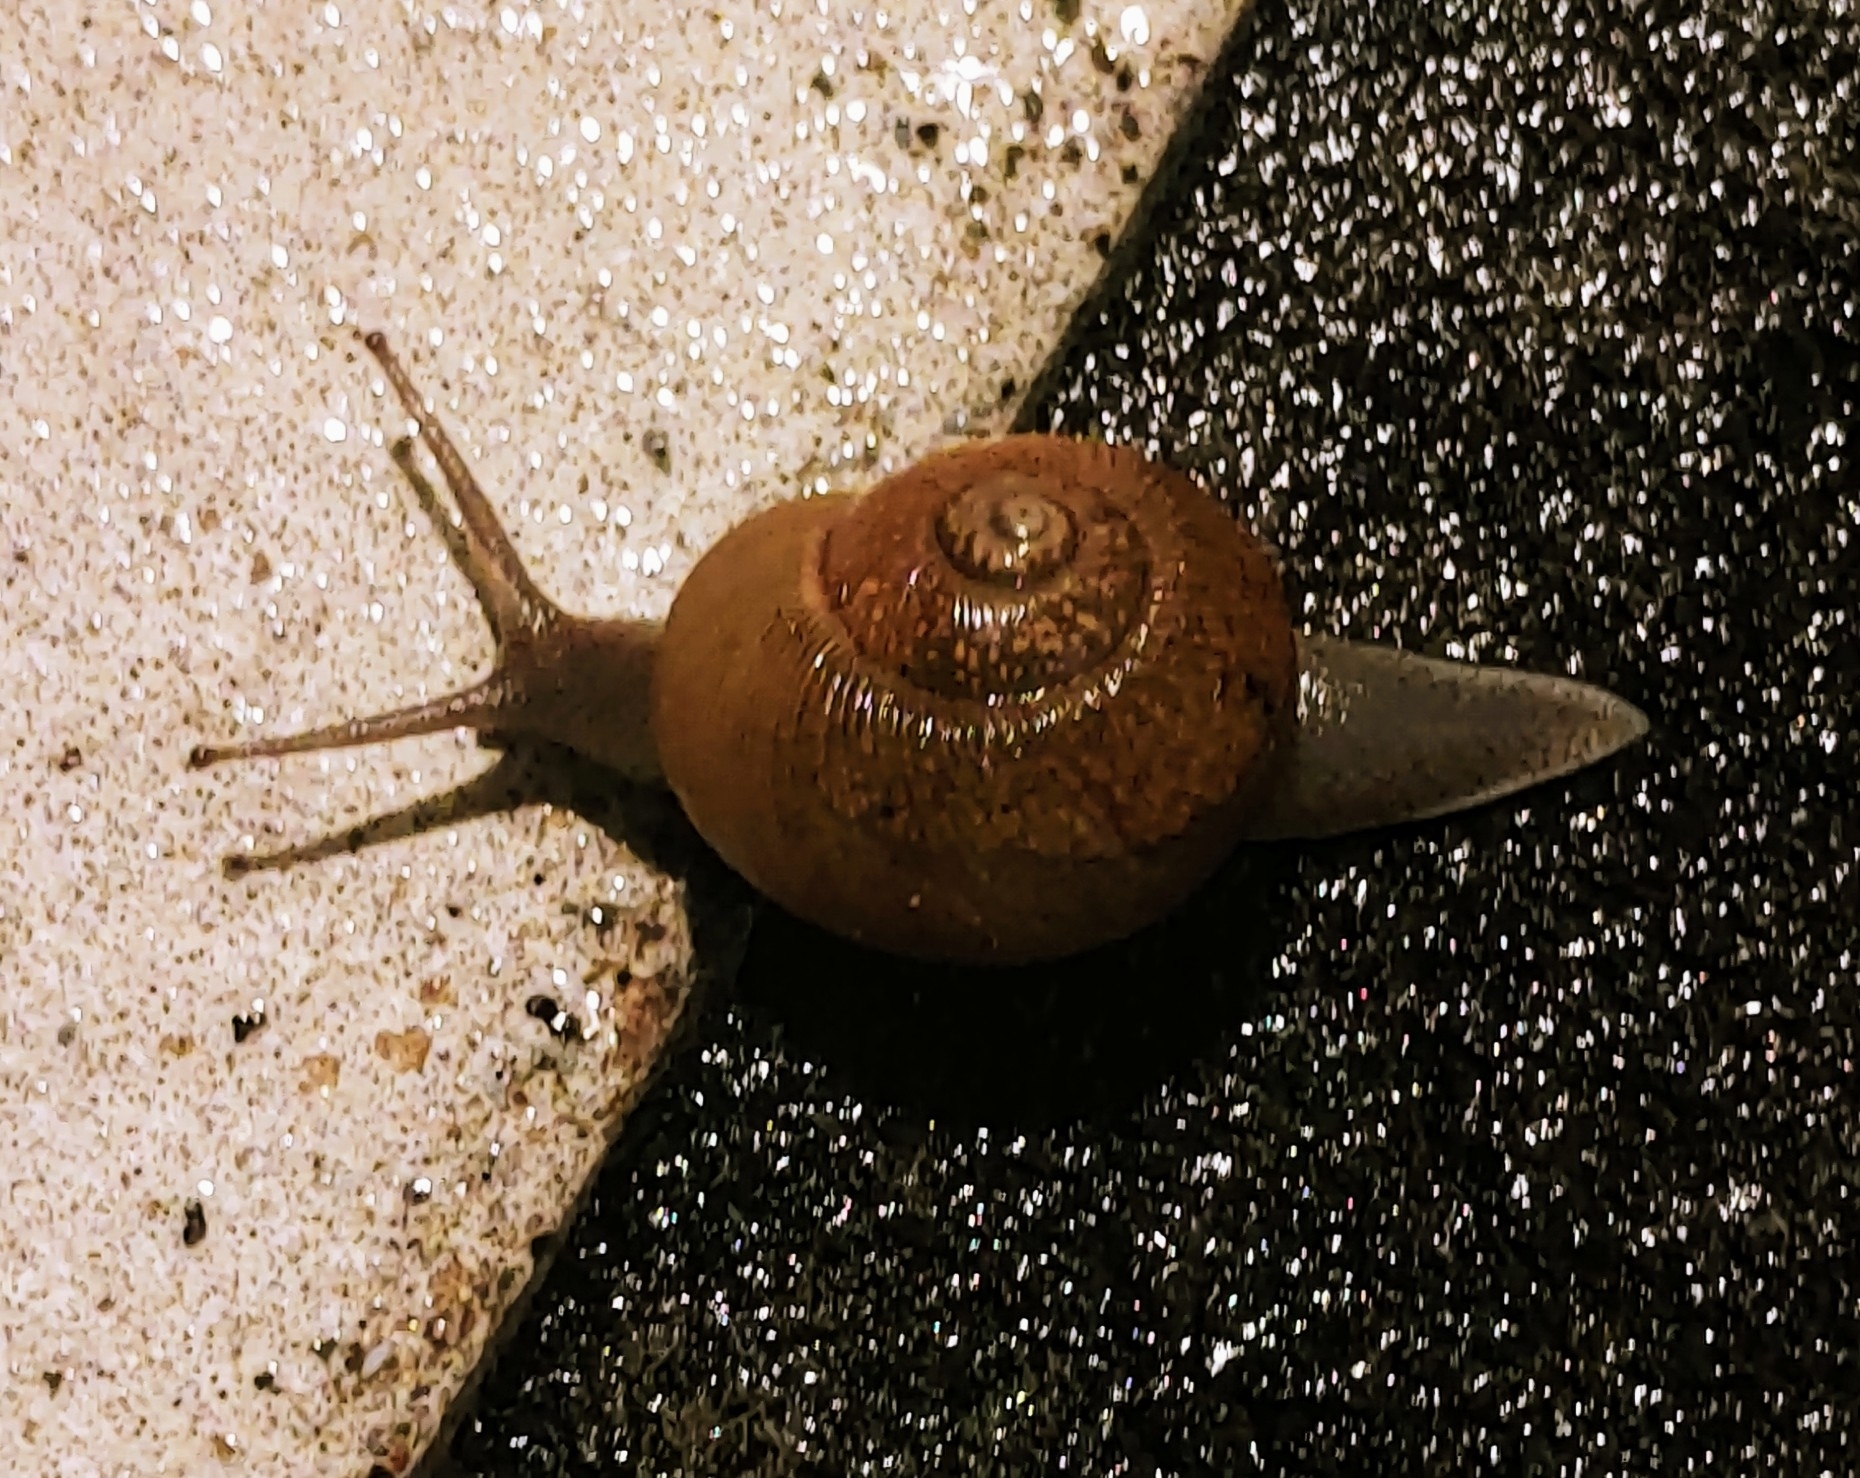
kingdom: Animalia
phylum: Mollusca
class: Gastropoda
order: Stylommatophora
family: Zachrysiidae
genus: Zachrysia
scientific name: Zachrysia provisoria
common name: Garden zachrysia
